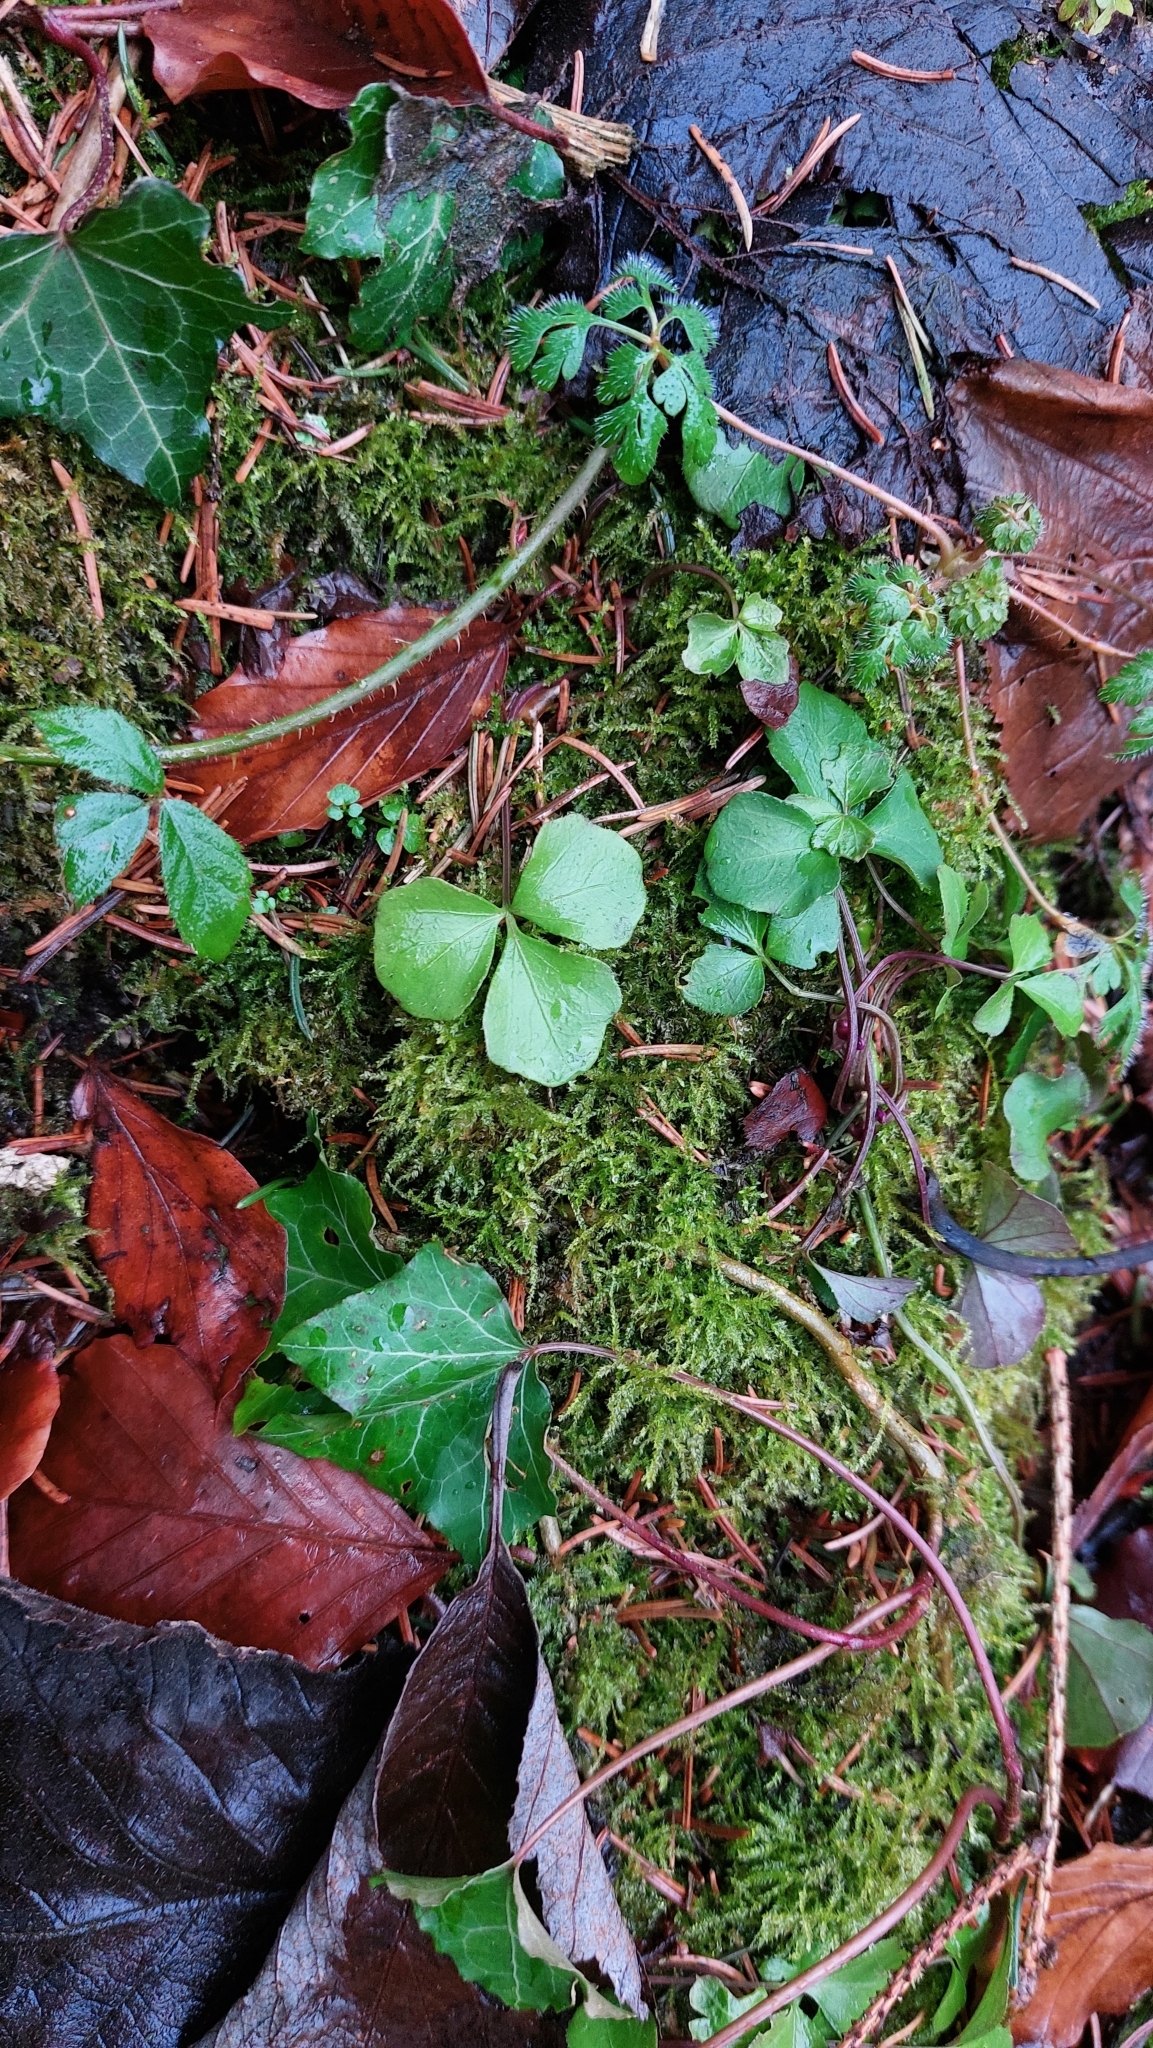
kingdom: Plantae
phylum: Tracheophyta
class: Magnoliopsida
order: Brassicales
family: Brassicaceae
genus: Cardamine
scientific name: Cardamine trifolia
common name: Trefoil cress
